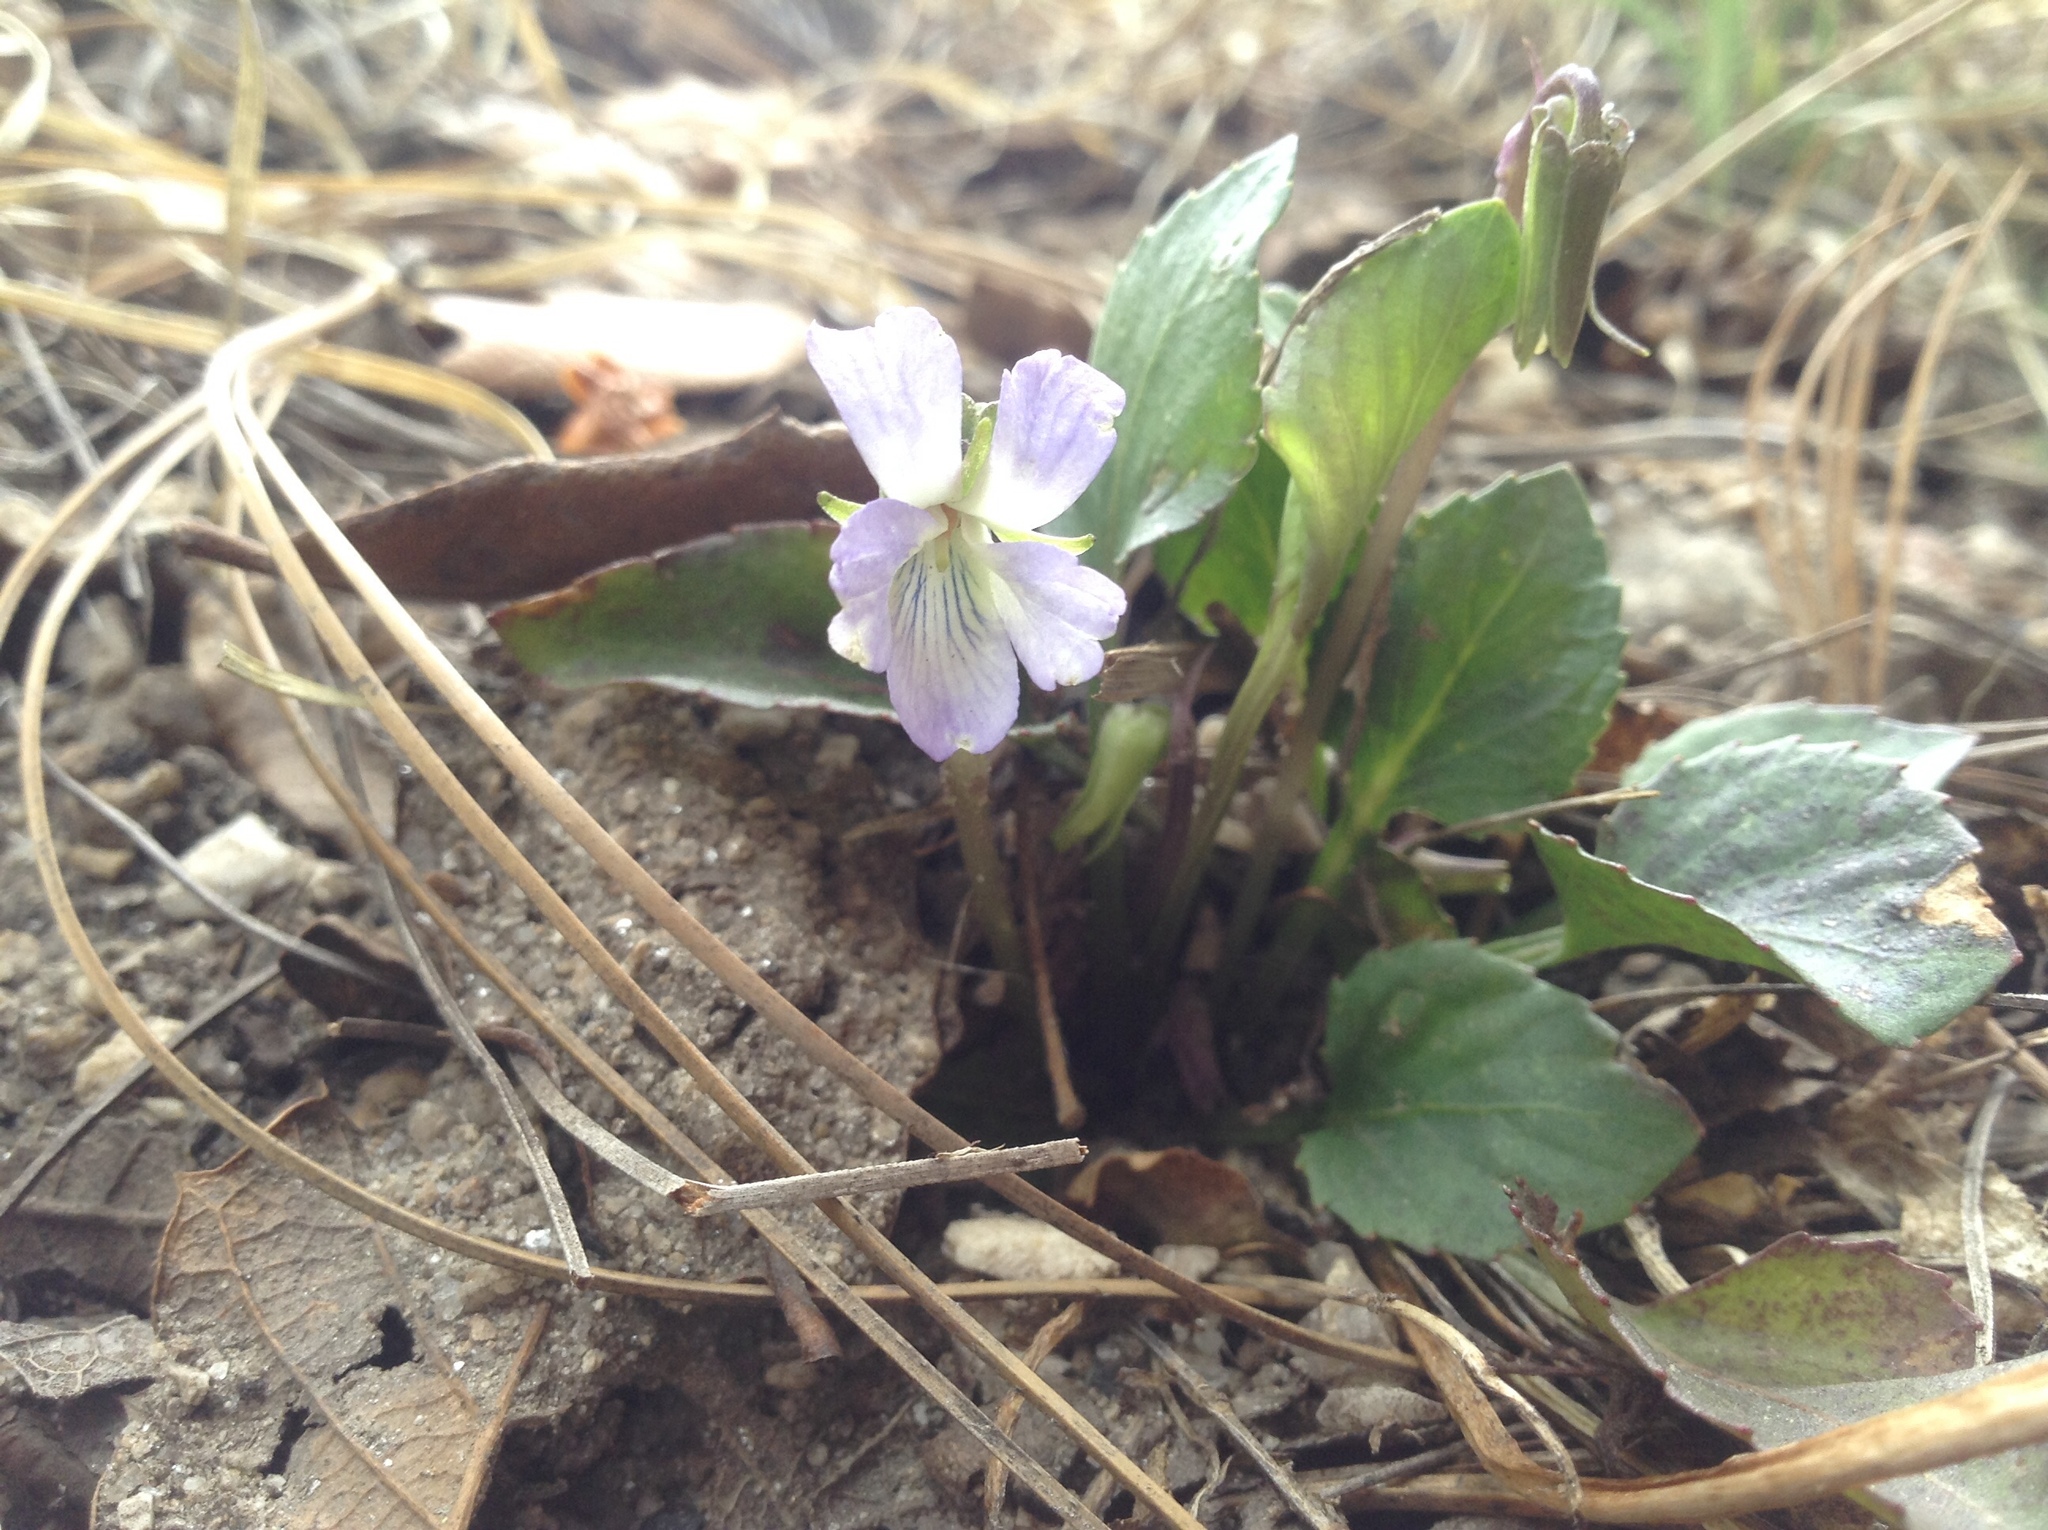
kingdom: Plantae
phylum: Tracheophyta
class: Magnoliopsida
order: Malpighiales
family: Violaceae
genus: Viola
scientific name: Viola umbraticola
